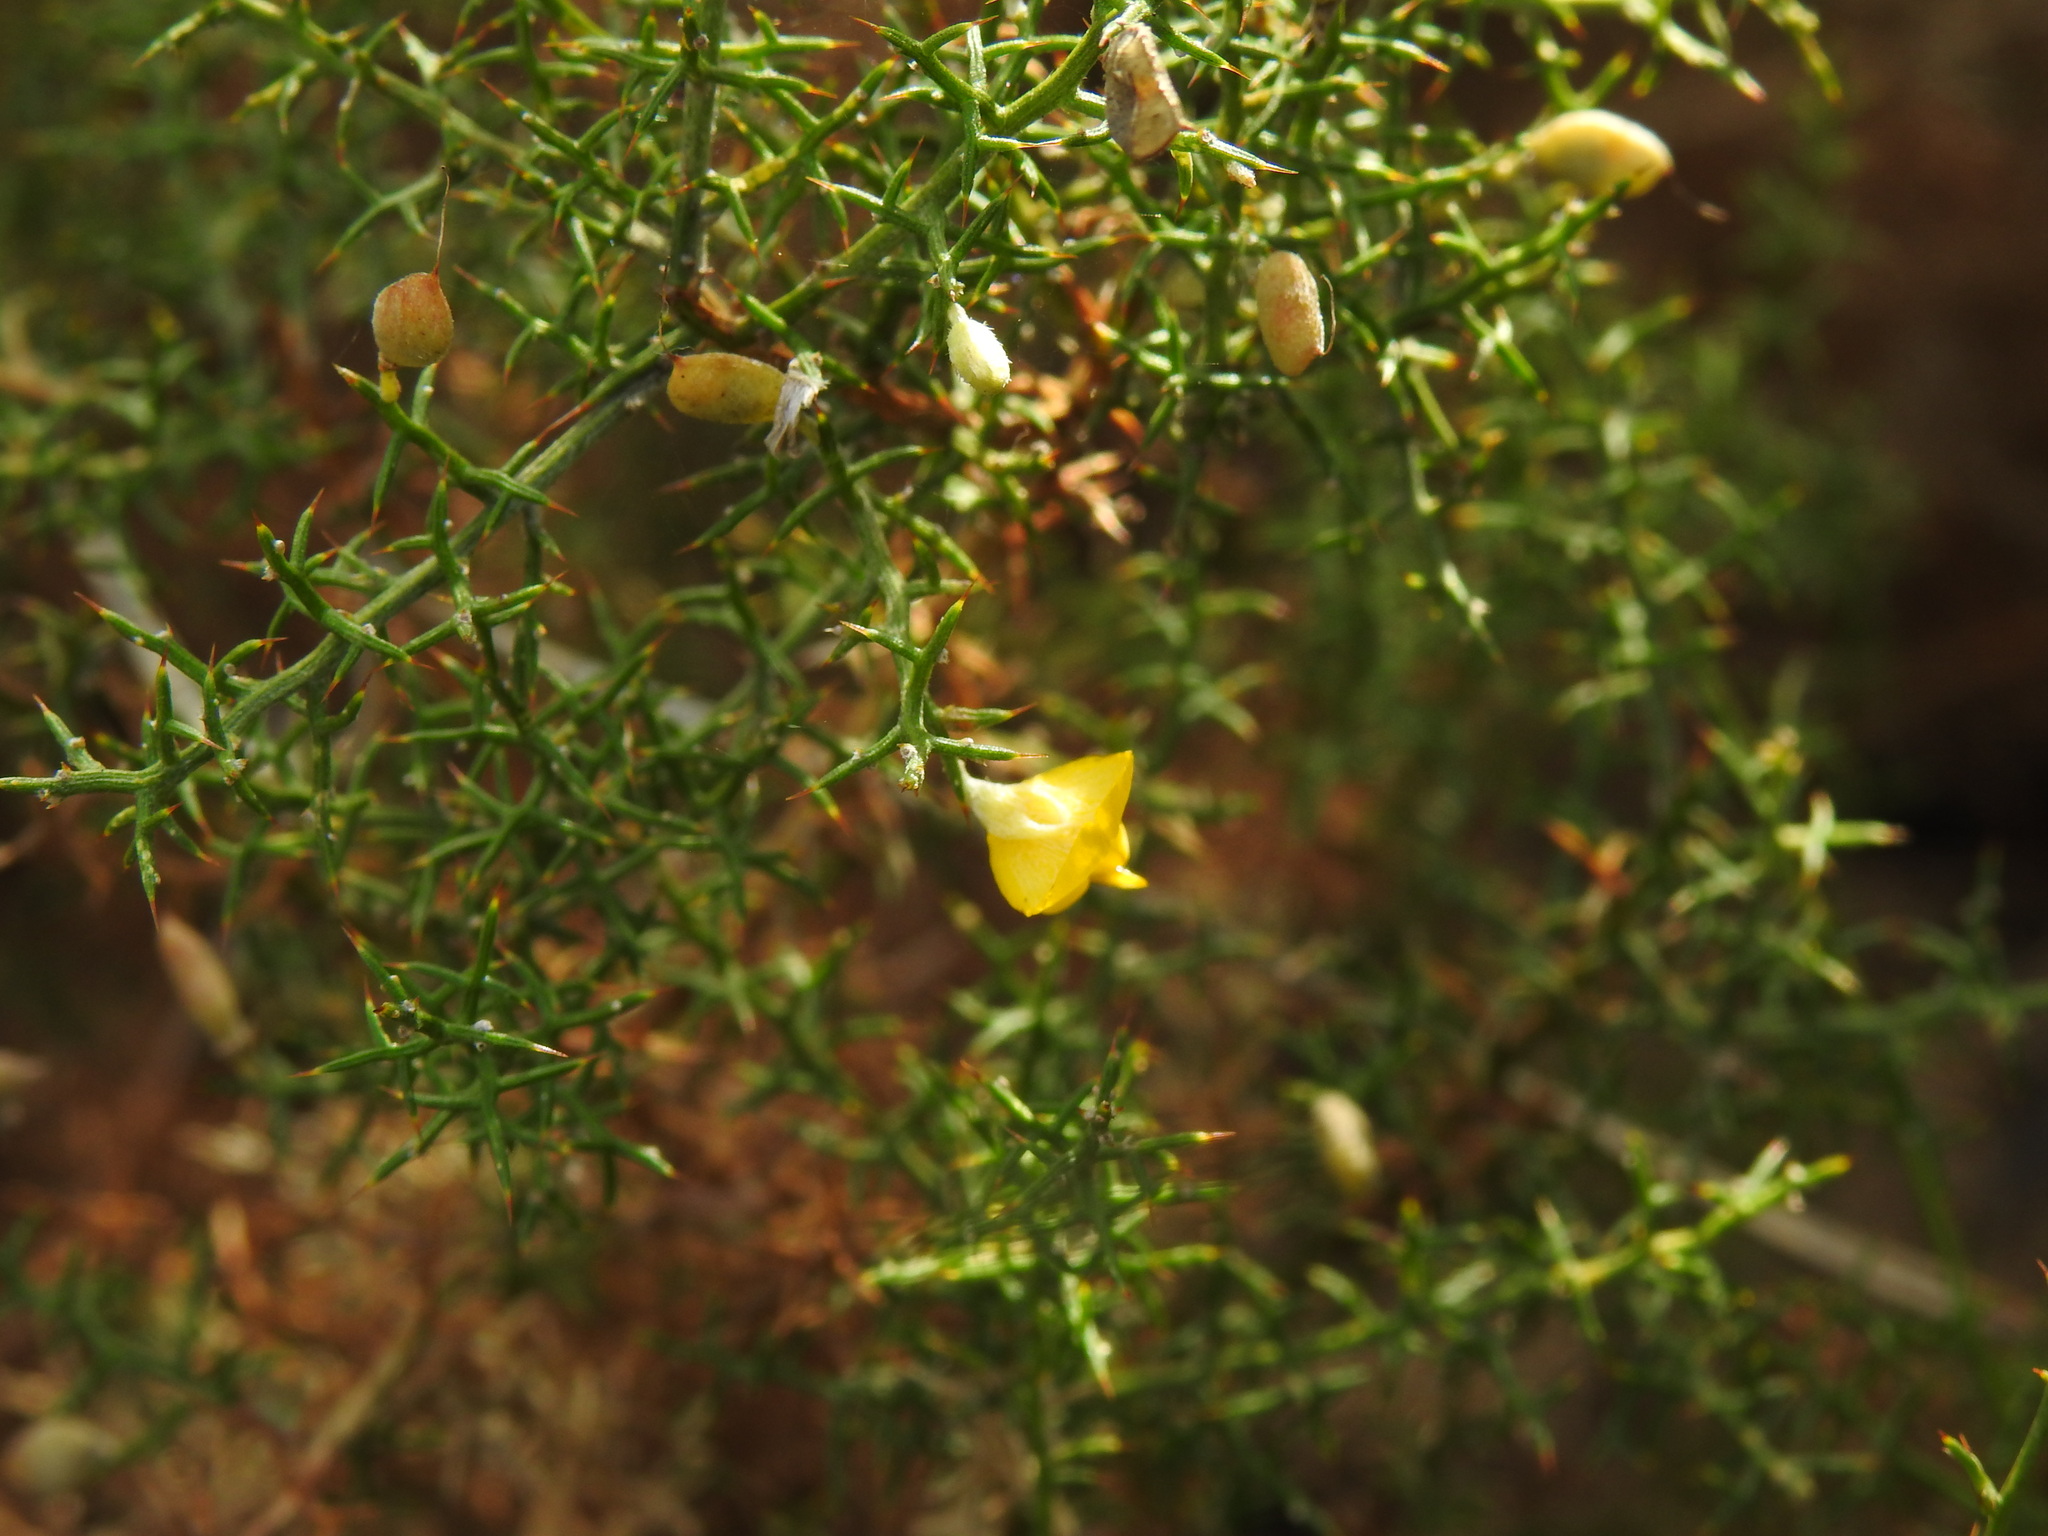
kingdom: Plantae
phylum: Tracheophyta
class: Magnoliopsida
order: Fabales
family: Fabaceae
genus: Stauracanthus
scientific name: Stauracanthus boivinii
